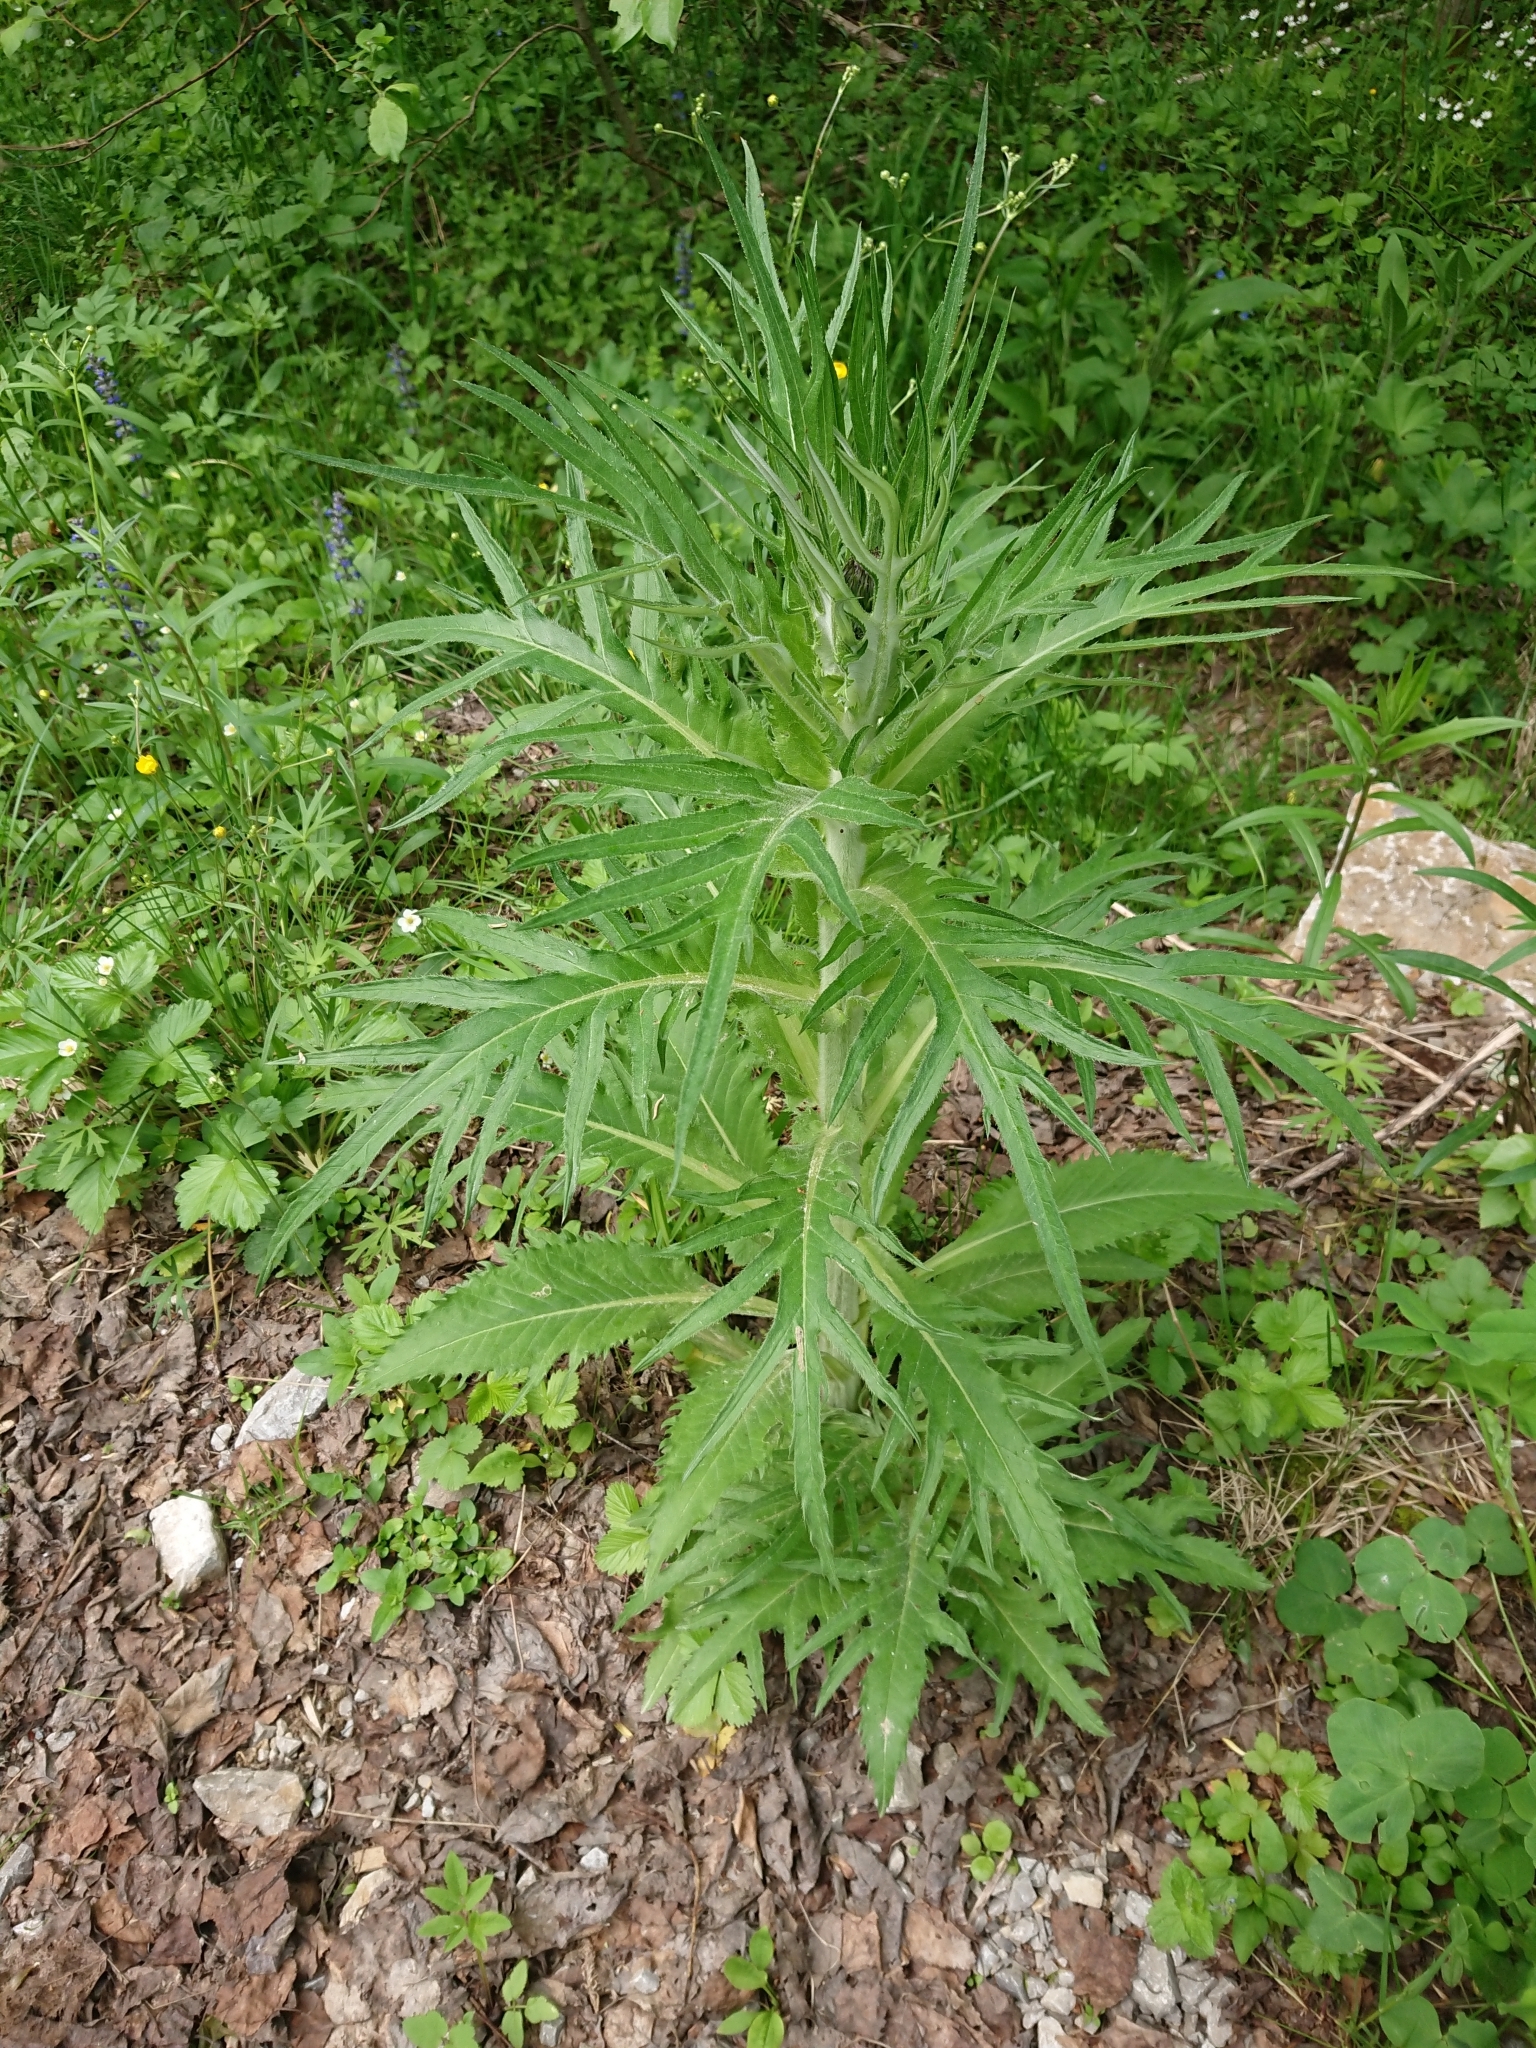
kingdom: Plantae
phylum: Tracheophyta
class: Magnoliopsida
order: Asterales
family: Asteraceae
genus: Cirsium
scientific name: Cirsium heterophyllum
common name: Melancholy thistle
